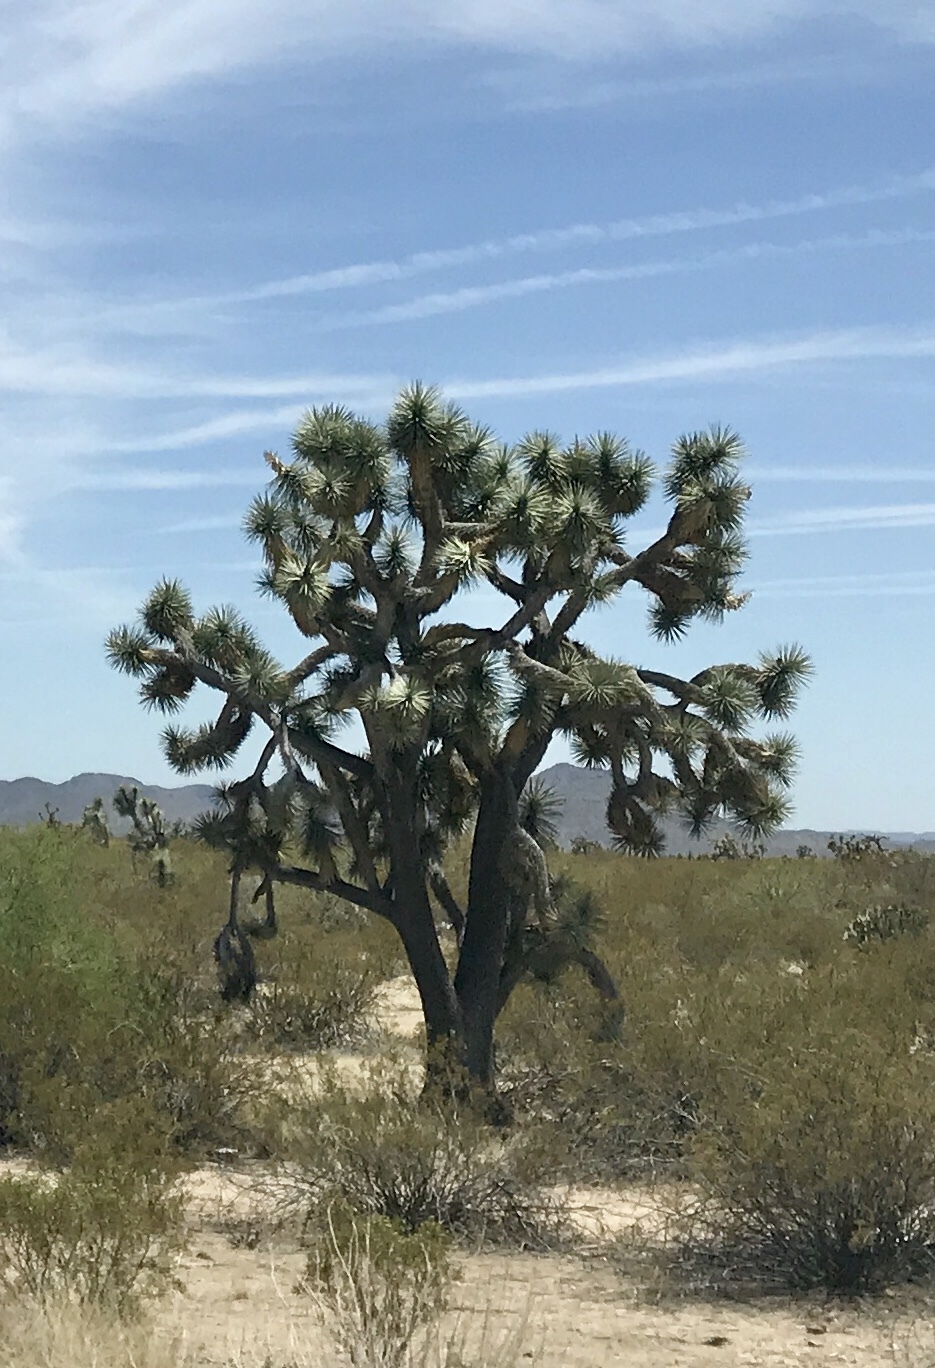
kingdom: Plantae
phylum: Tracheophyta
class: Liliopsida
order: Asparagales
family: Asparagaceae
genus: Yucca
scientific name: Yucca brevifolia
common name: Joshua tree
